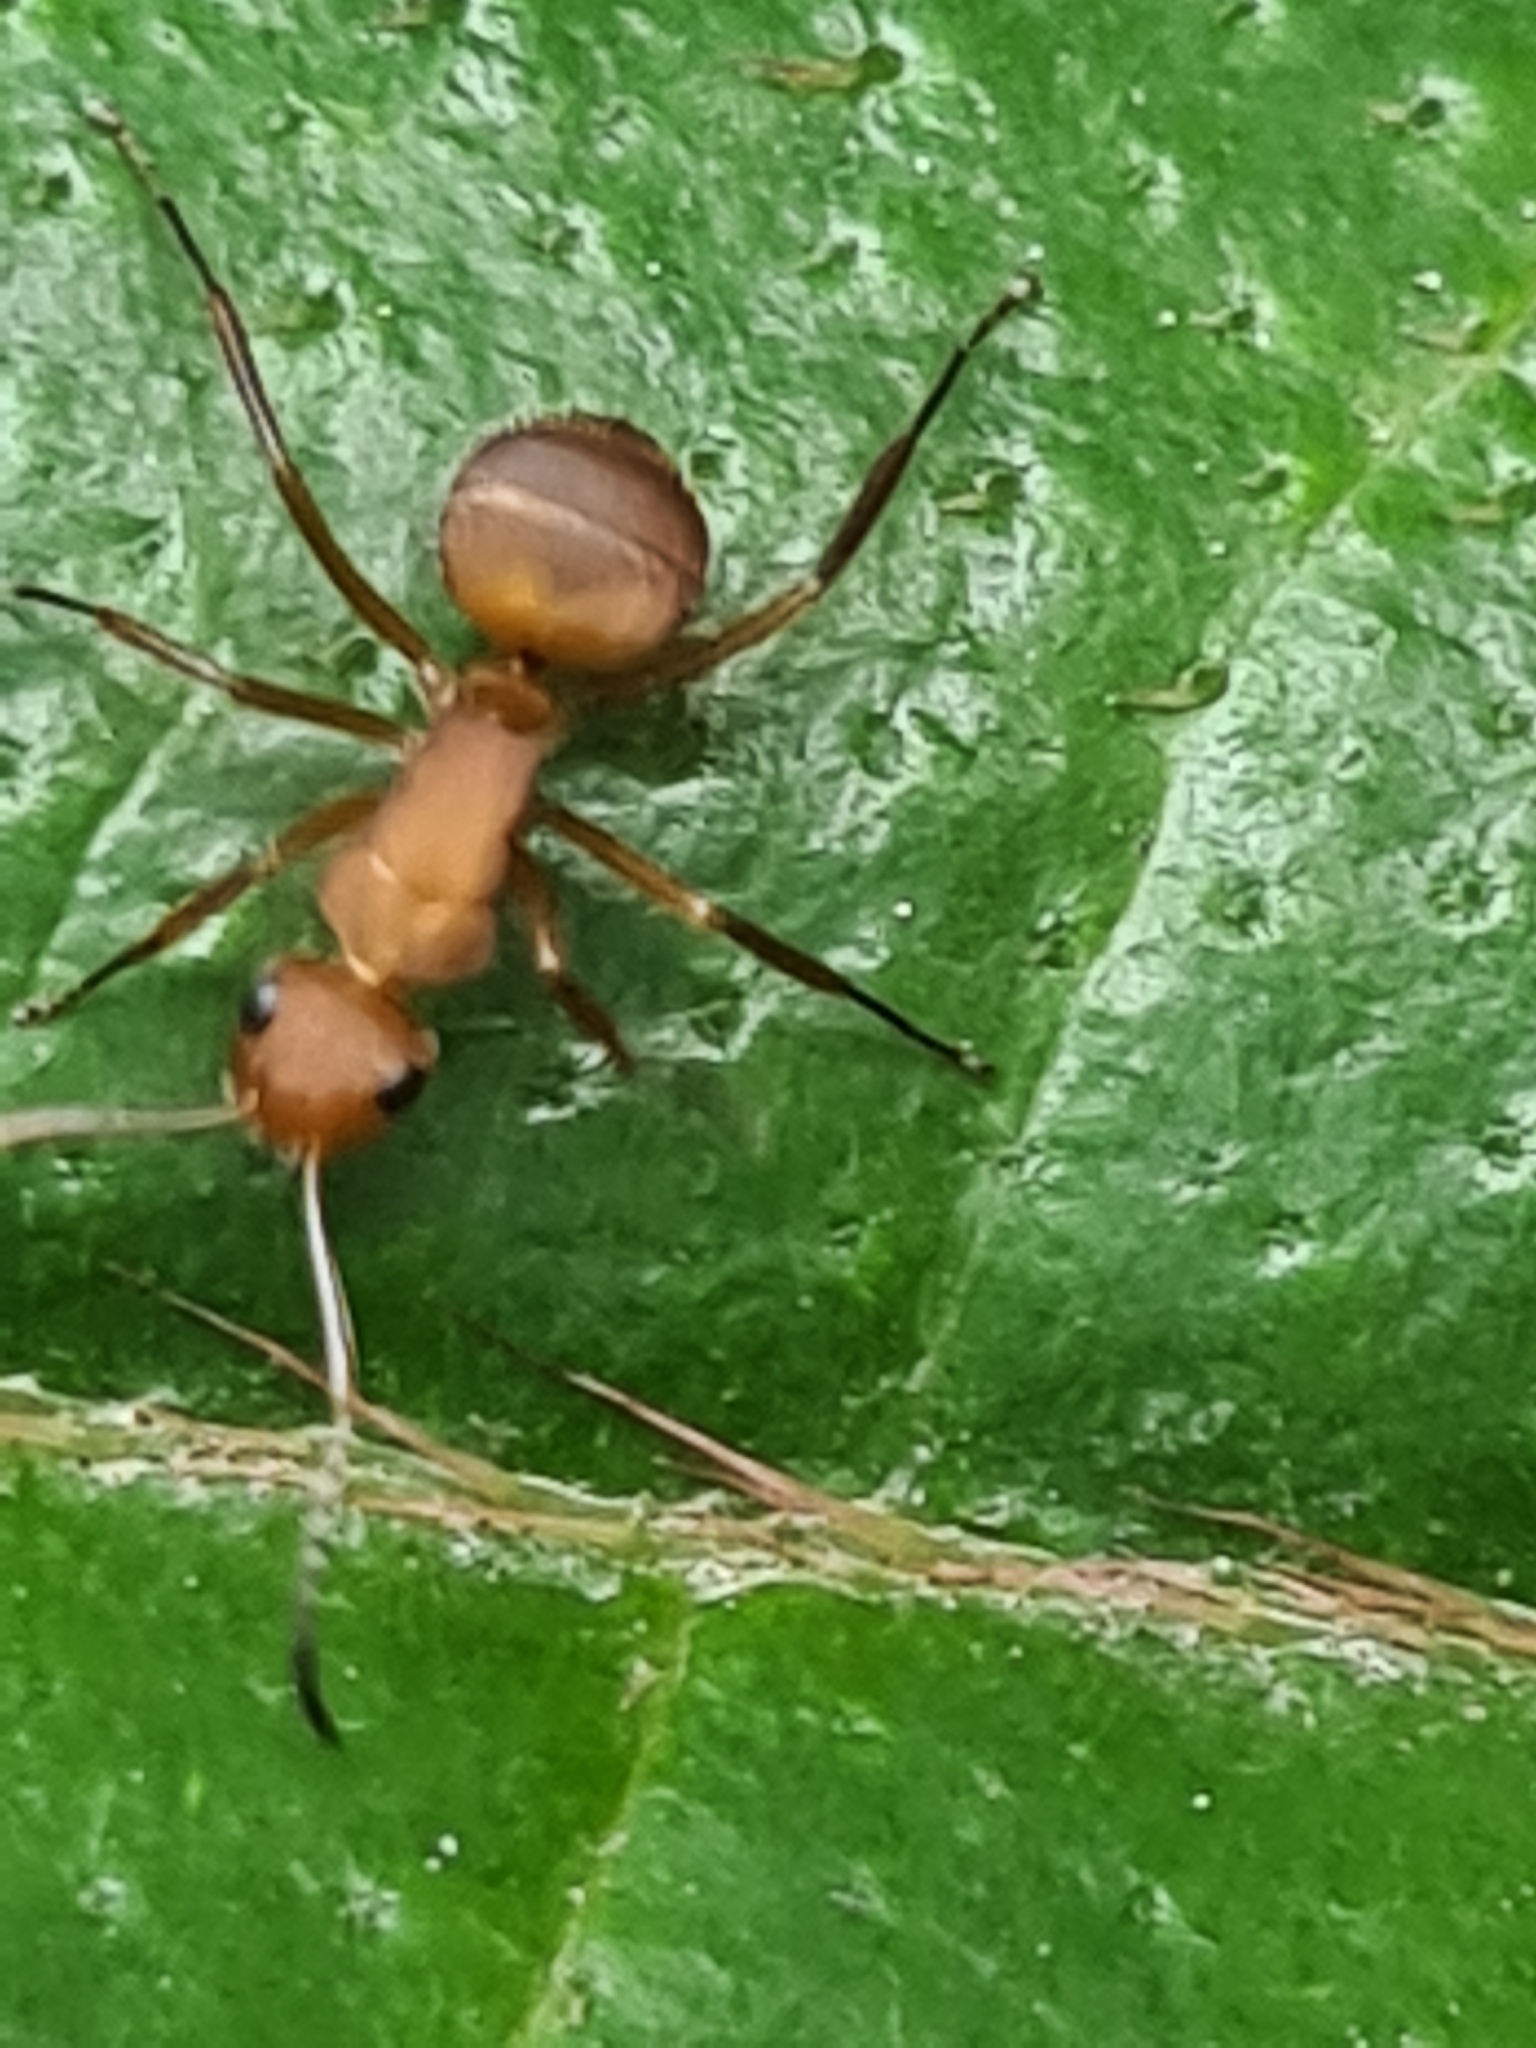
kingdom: Animalia
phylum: Arthropoda
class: Insecta
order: Hymenoptera
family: Formicidae
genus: Camponotus
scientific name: Camponotus rectangularis
